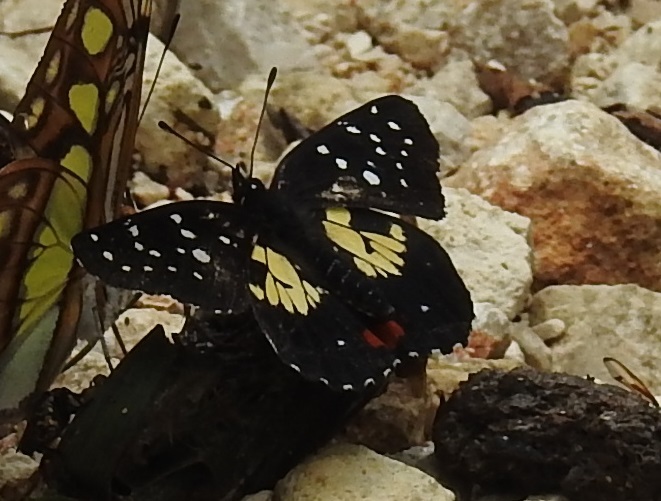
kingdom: Animalia
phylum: Arthropoda
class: Insecta
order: Lepidoptera
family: Nymphalidae
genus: Chlosyne
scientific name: Chlosyne erodyle
